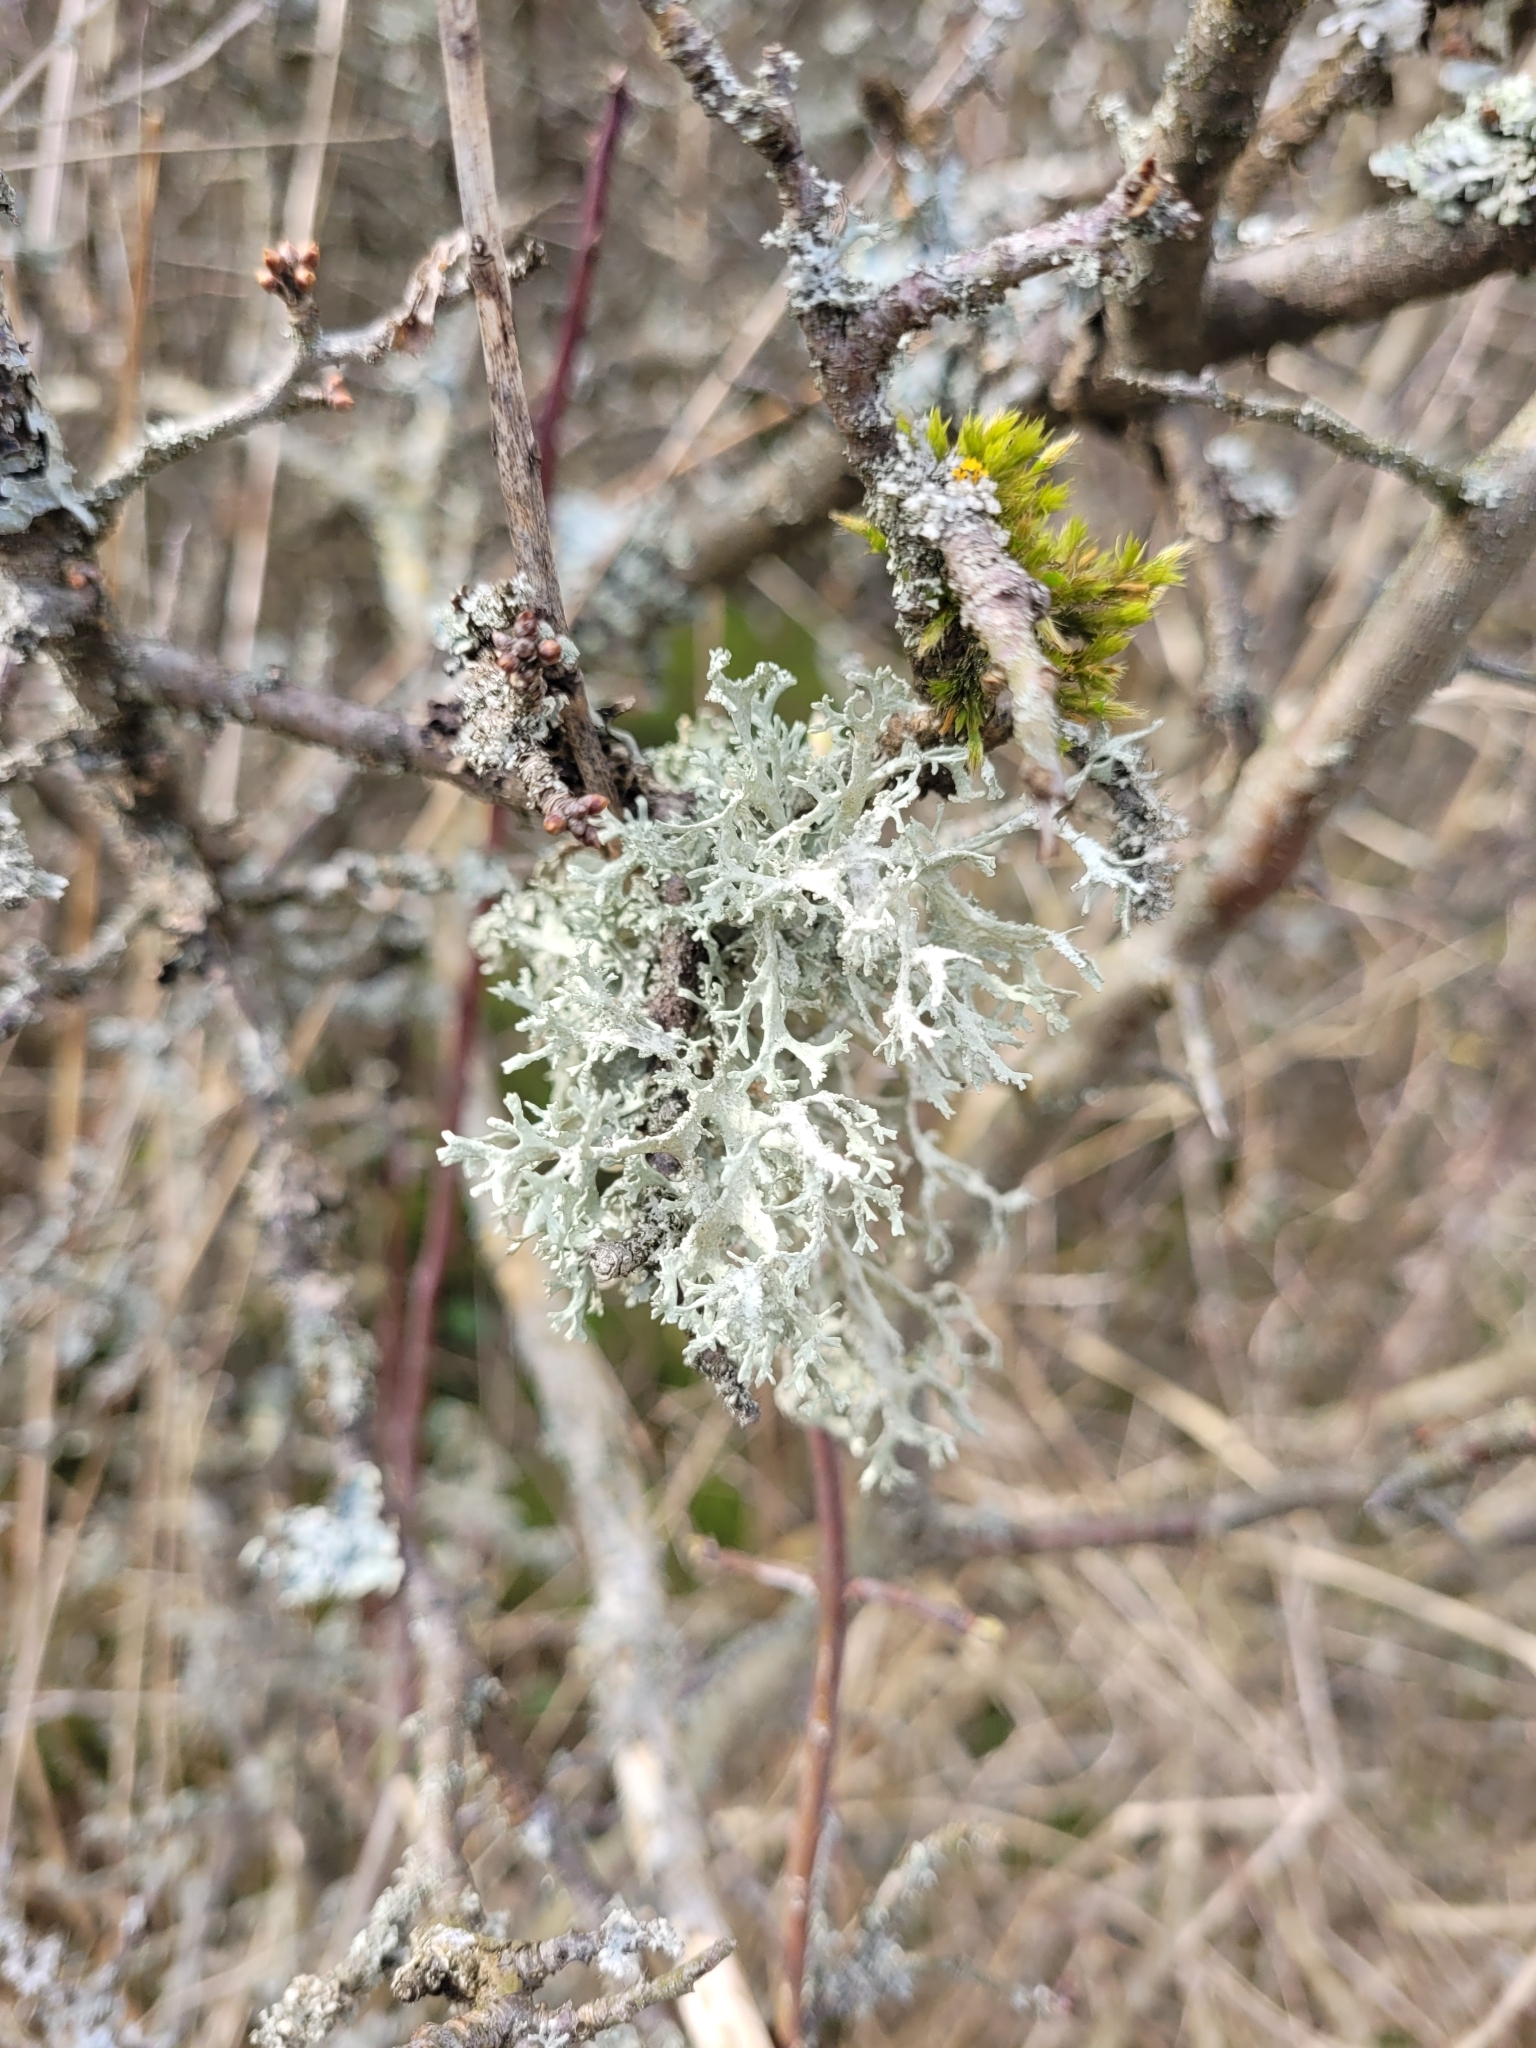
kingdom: Fungi
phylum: Ascomycota
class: Lecanoromycetes
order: Lecanorales
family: Parmeliaceae
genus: Evernia
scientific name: Evernia prunastri
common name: Oak moss
